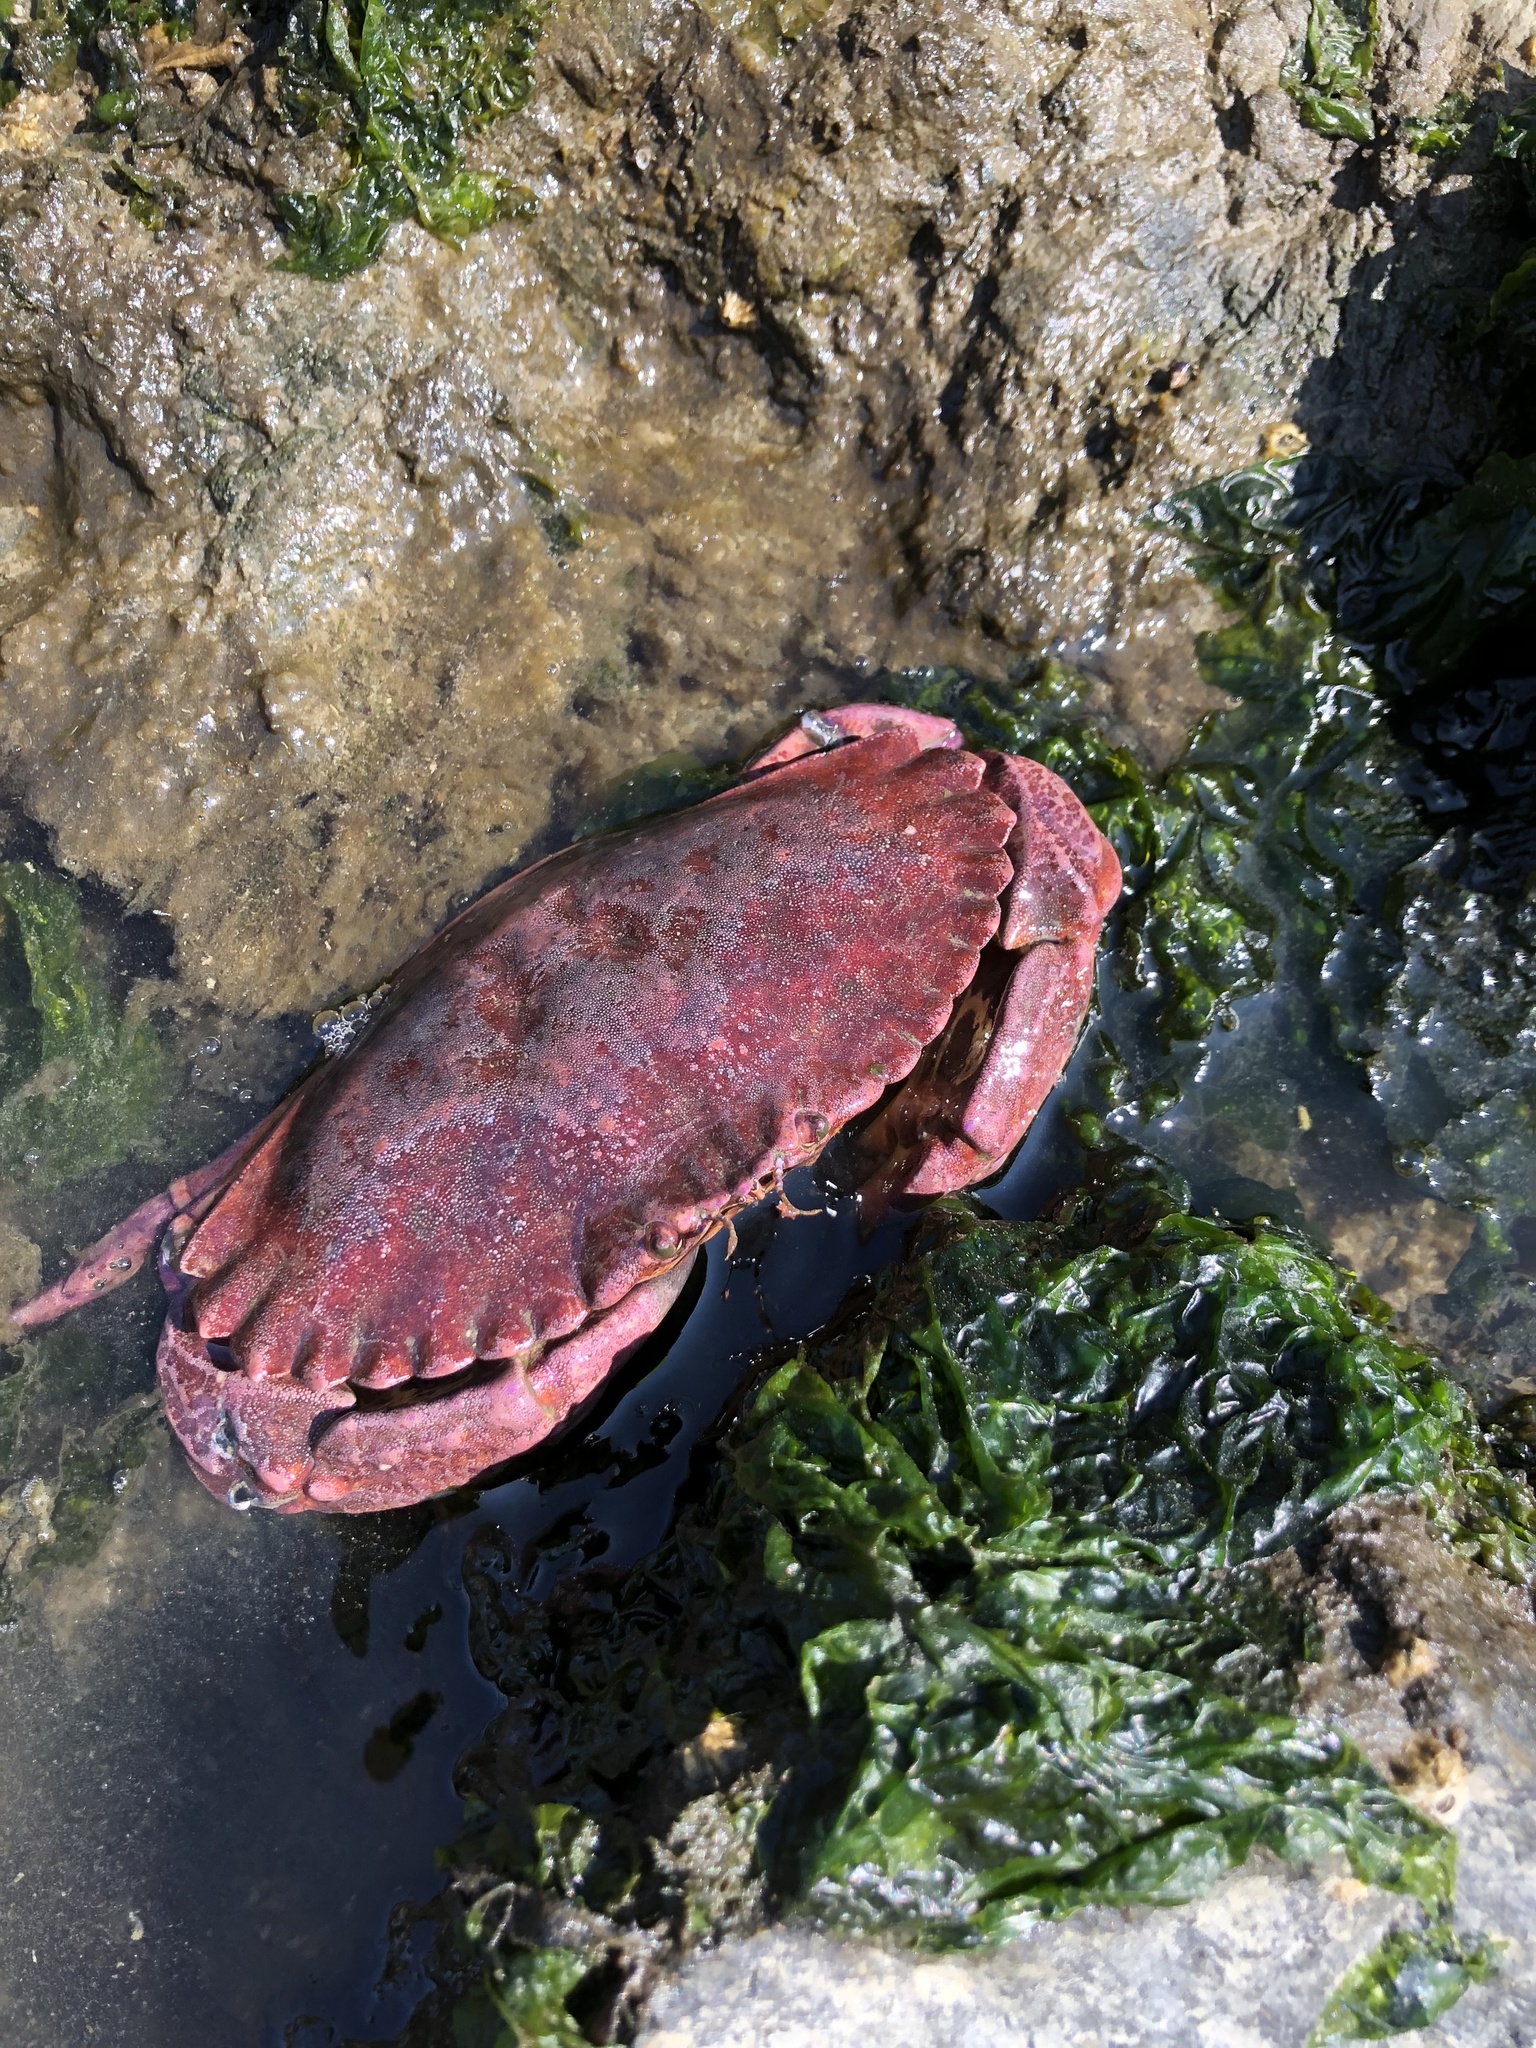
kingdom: Animalia
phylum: Arthropoda
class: Malacostraca
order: Decapoda
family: Cancridae
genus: Cancer
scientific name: Cancer productus
